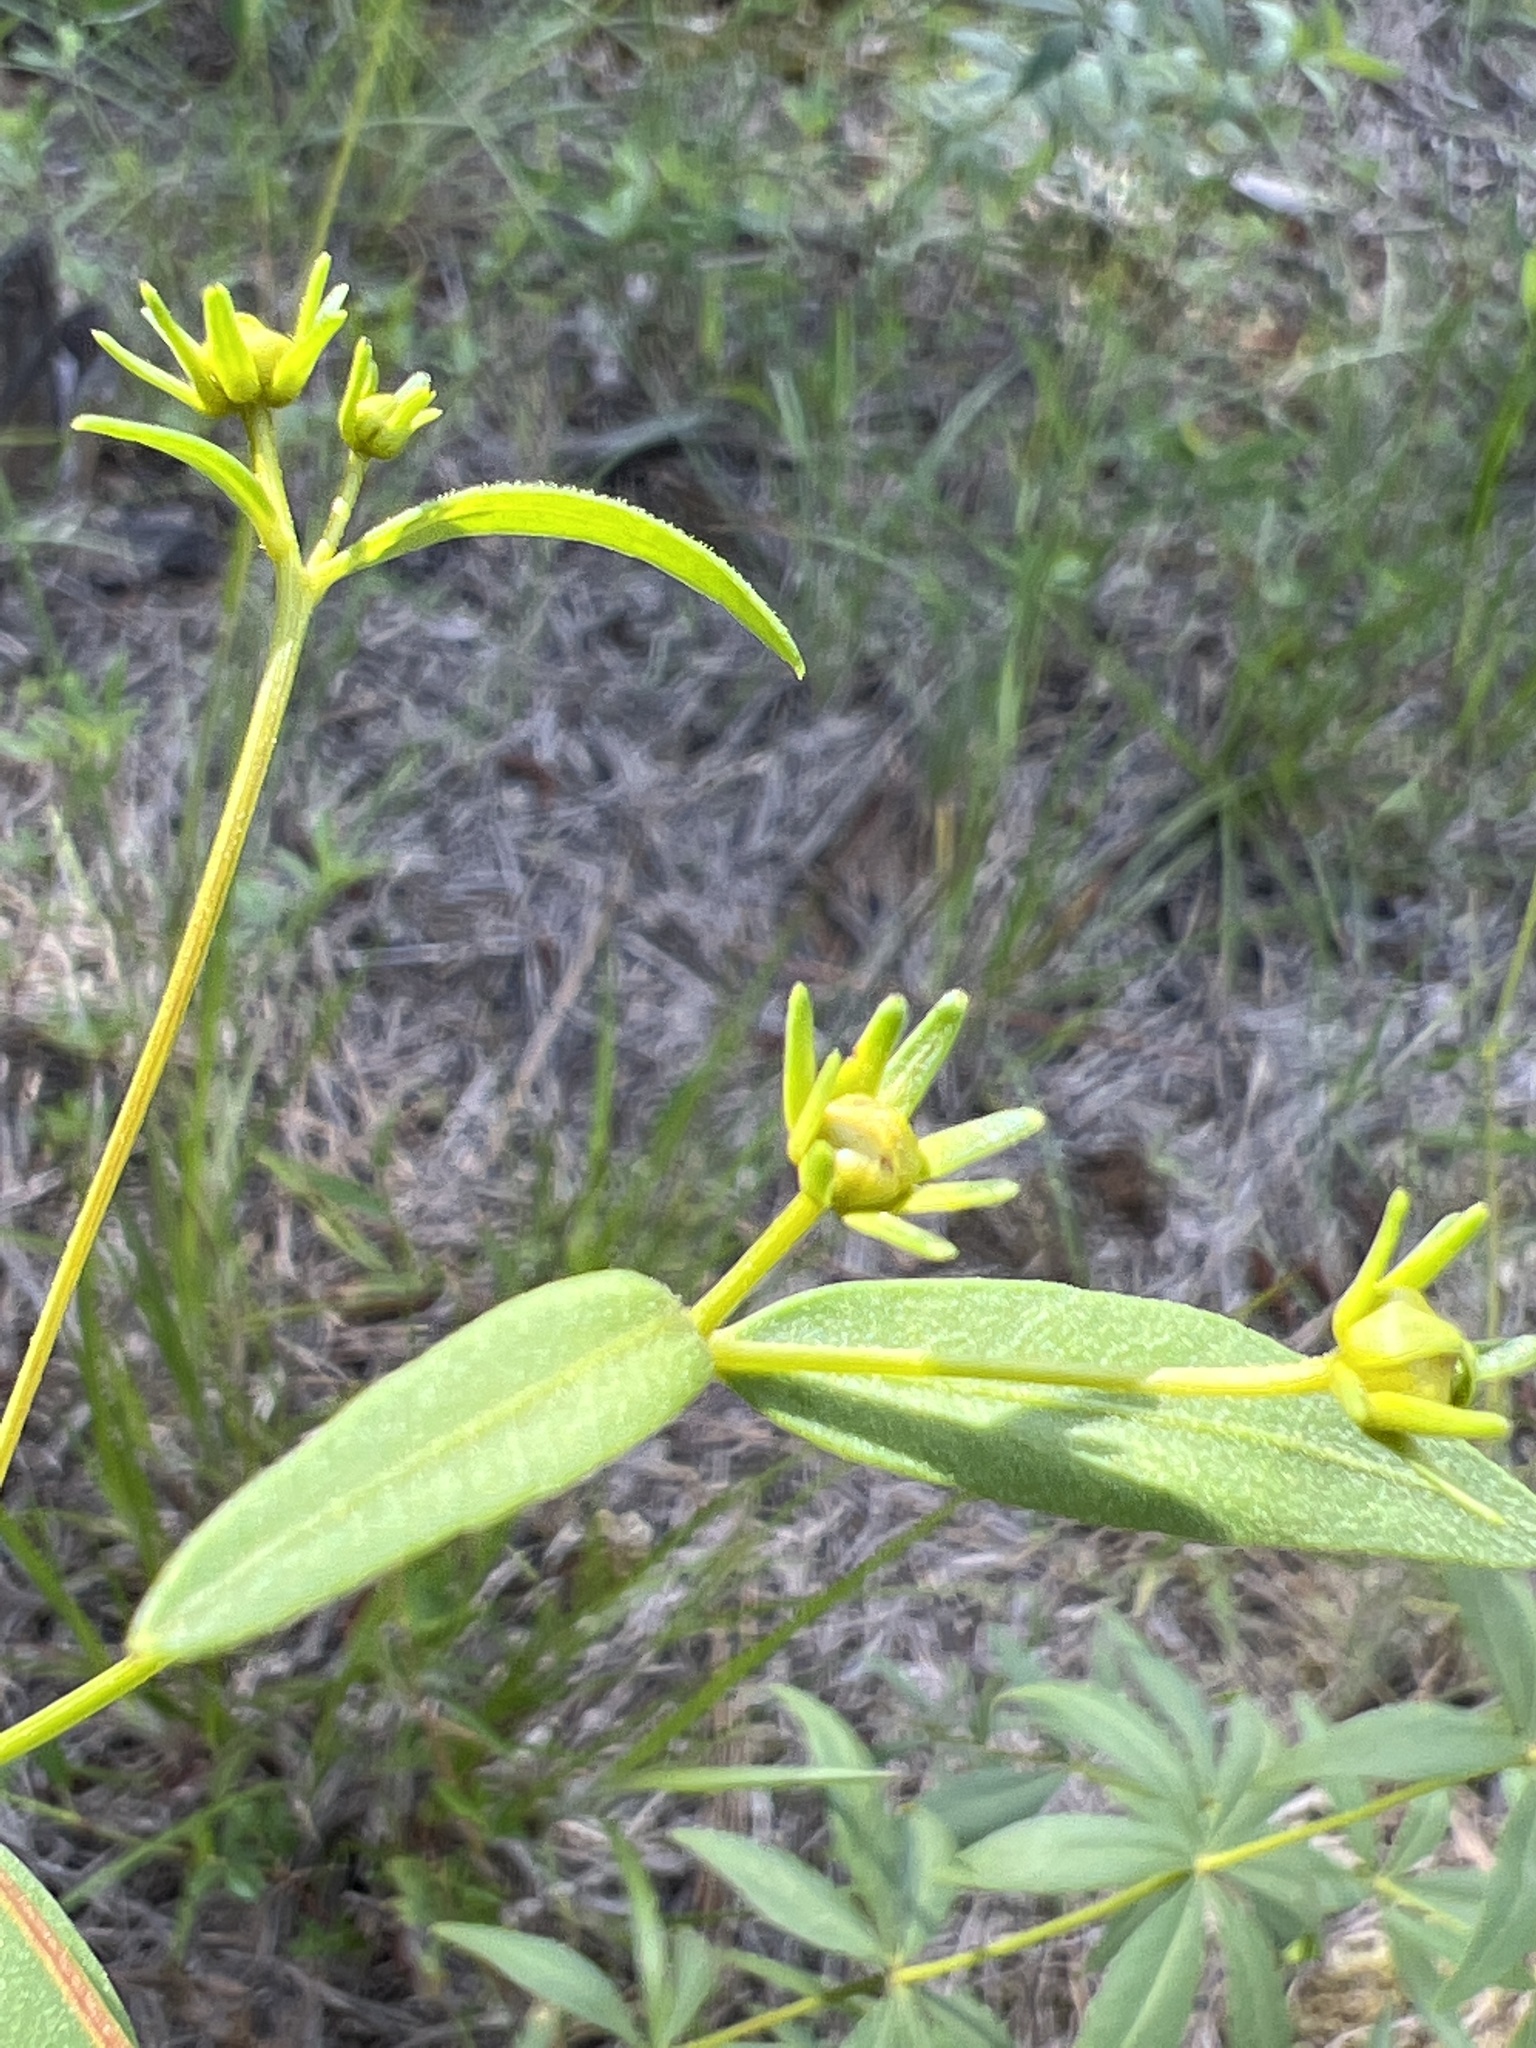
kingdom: Plantae
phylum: Tracheophyta
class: Magnoliopsida
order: Asterales
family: Asteraceae
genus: Coreopsis
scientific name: Coreopsis major
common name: Forest tickseed
